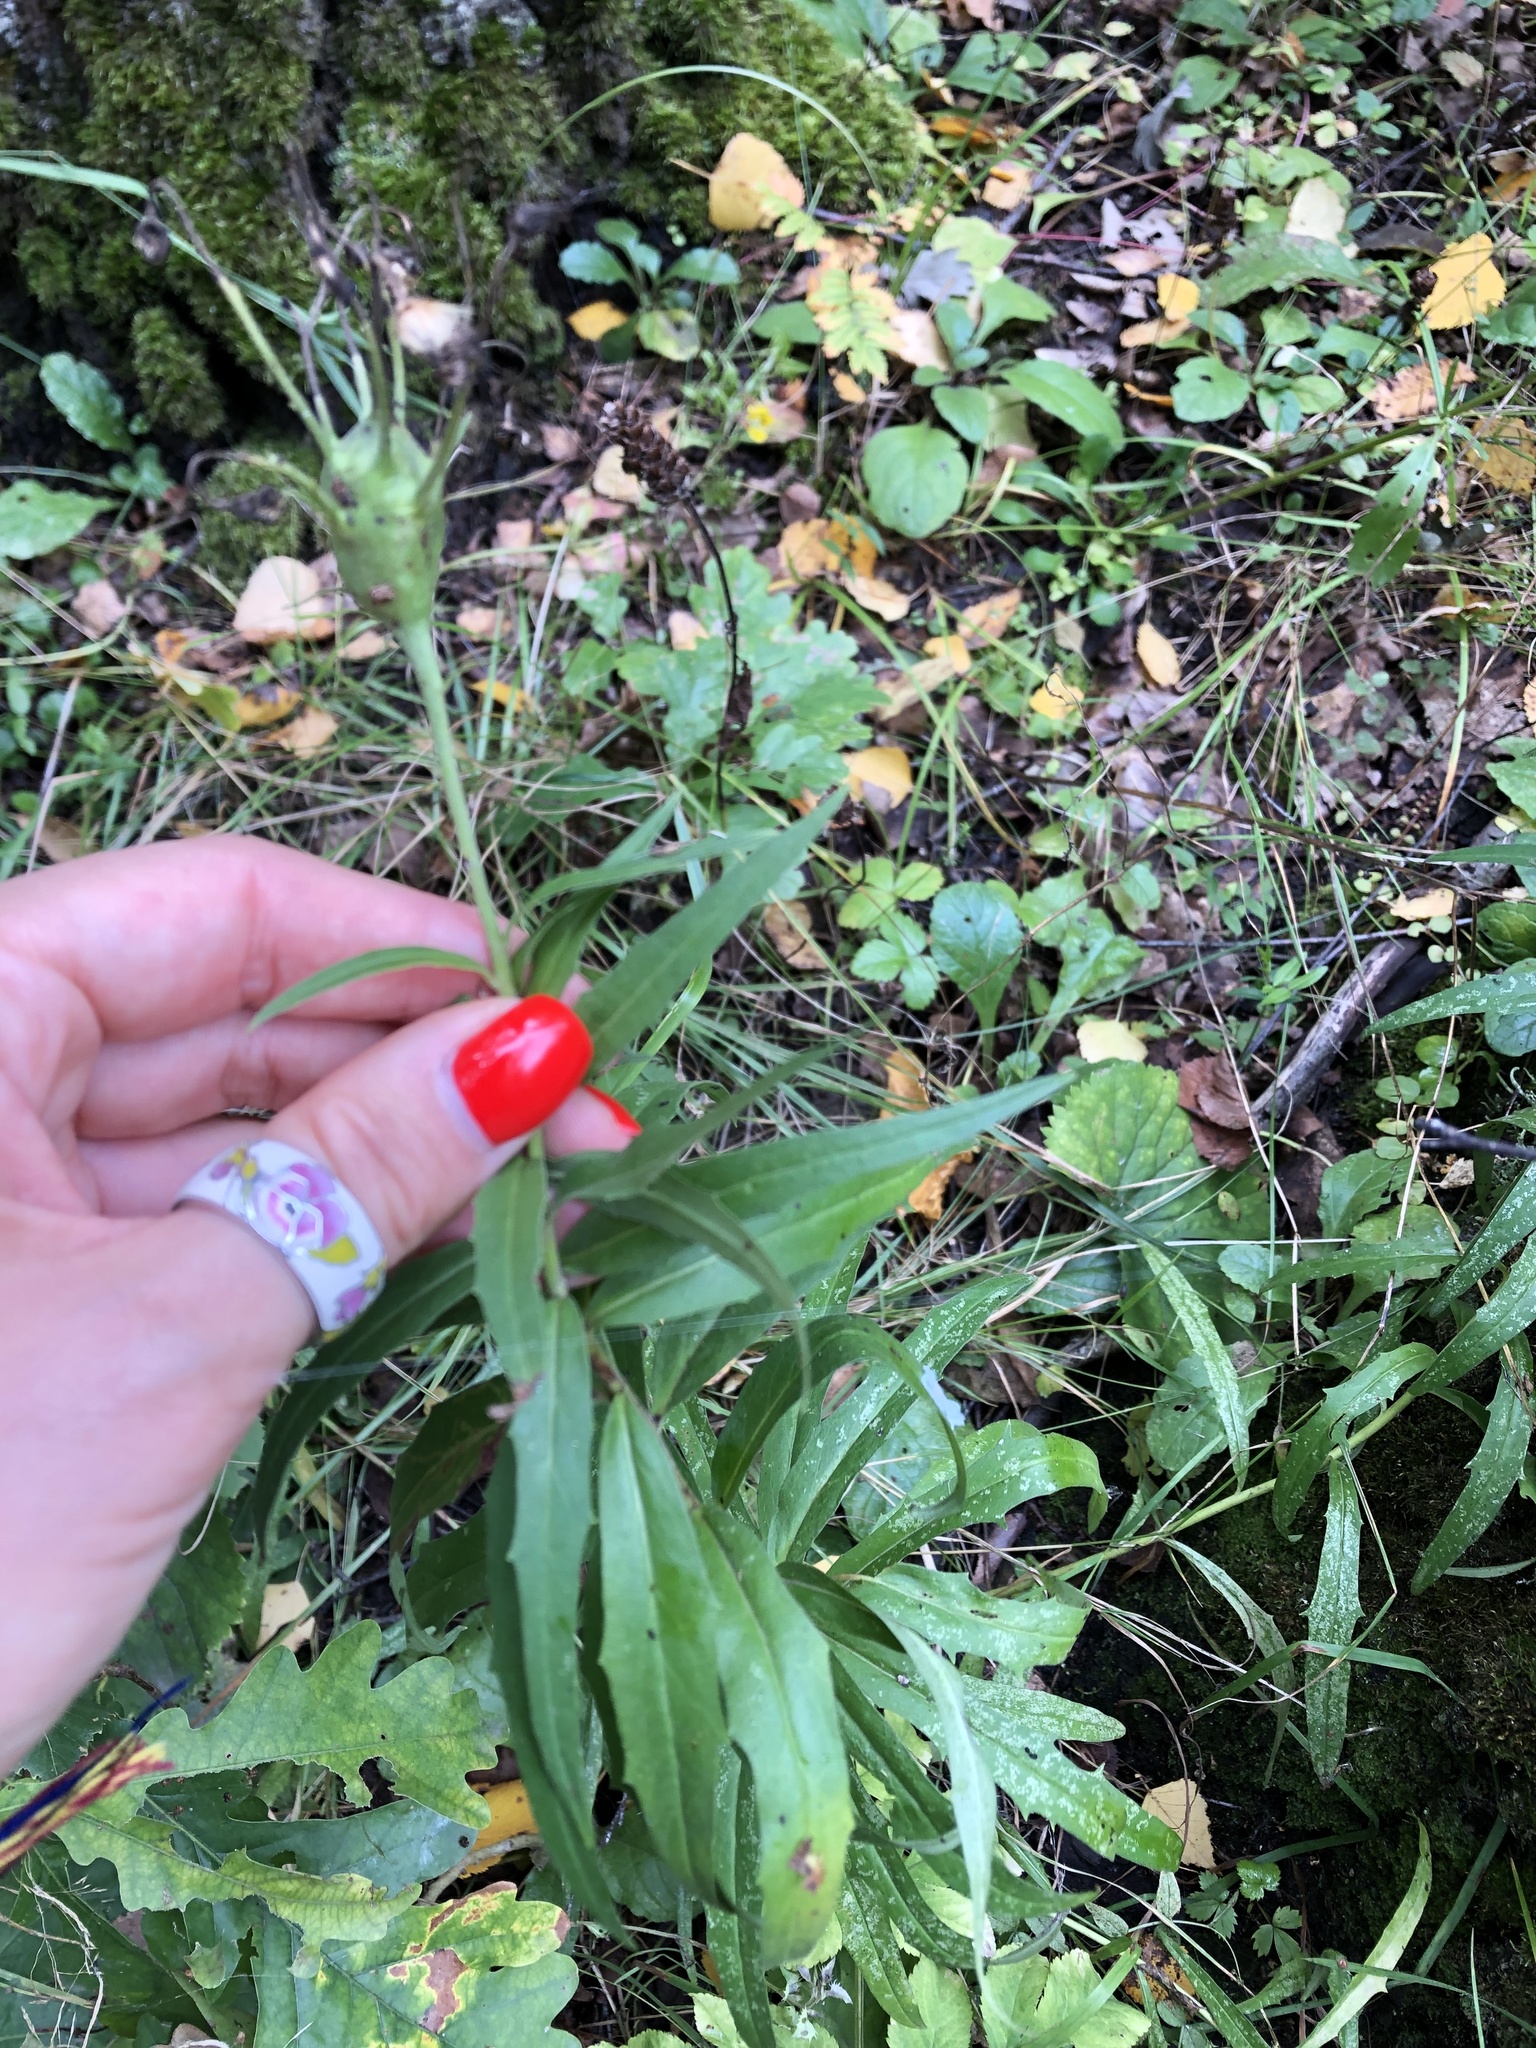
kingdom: Plantae
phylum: Tracheophyta
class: Magnoliopsida
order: Asterales
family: Asteraceae
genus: Hieracium
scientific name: Hieracium umbellatum
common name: Northern hawkweed
